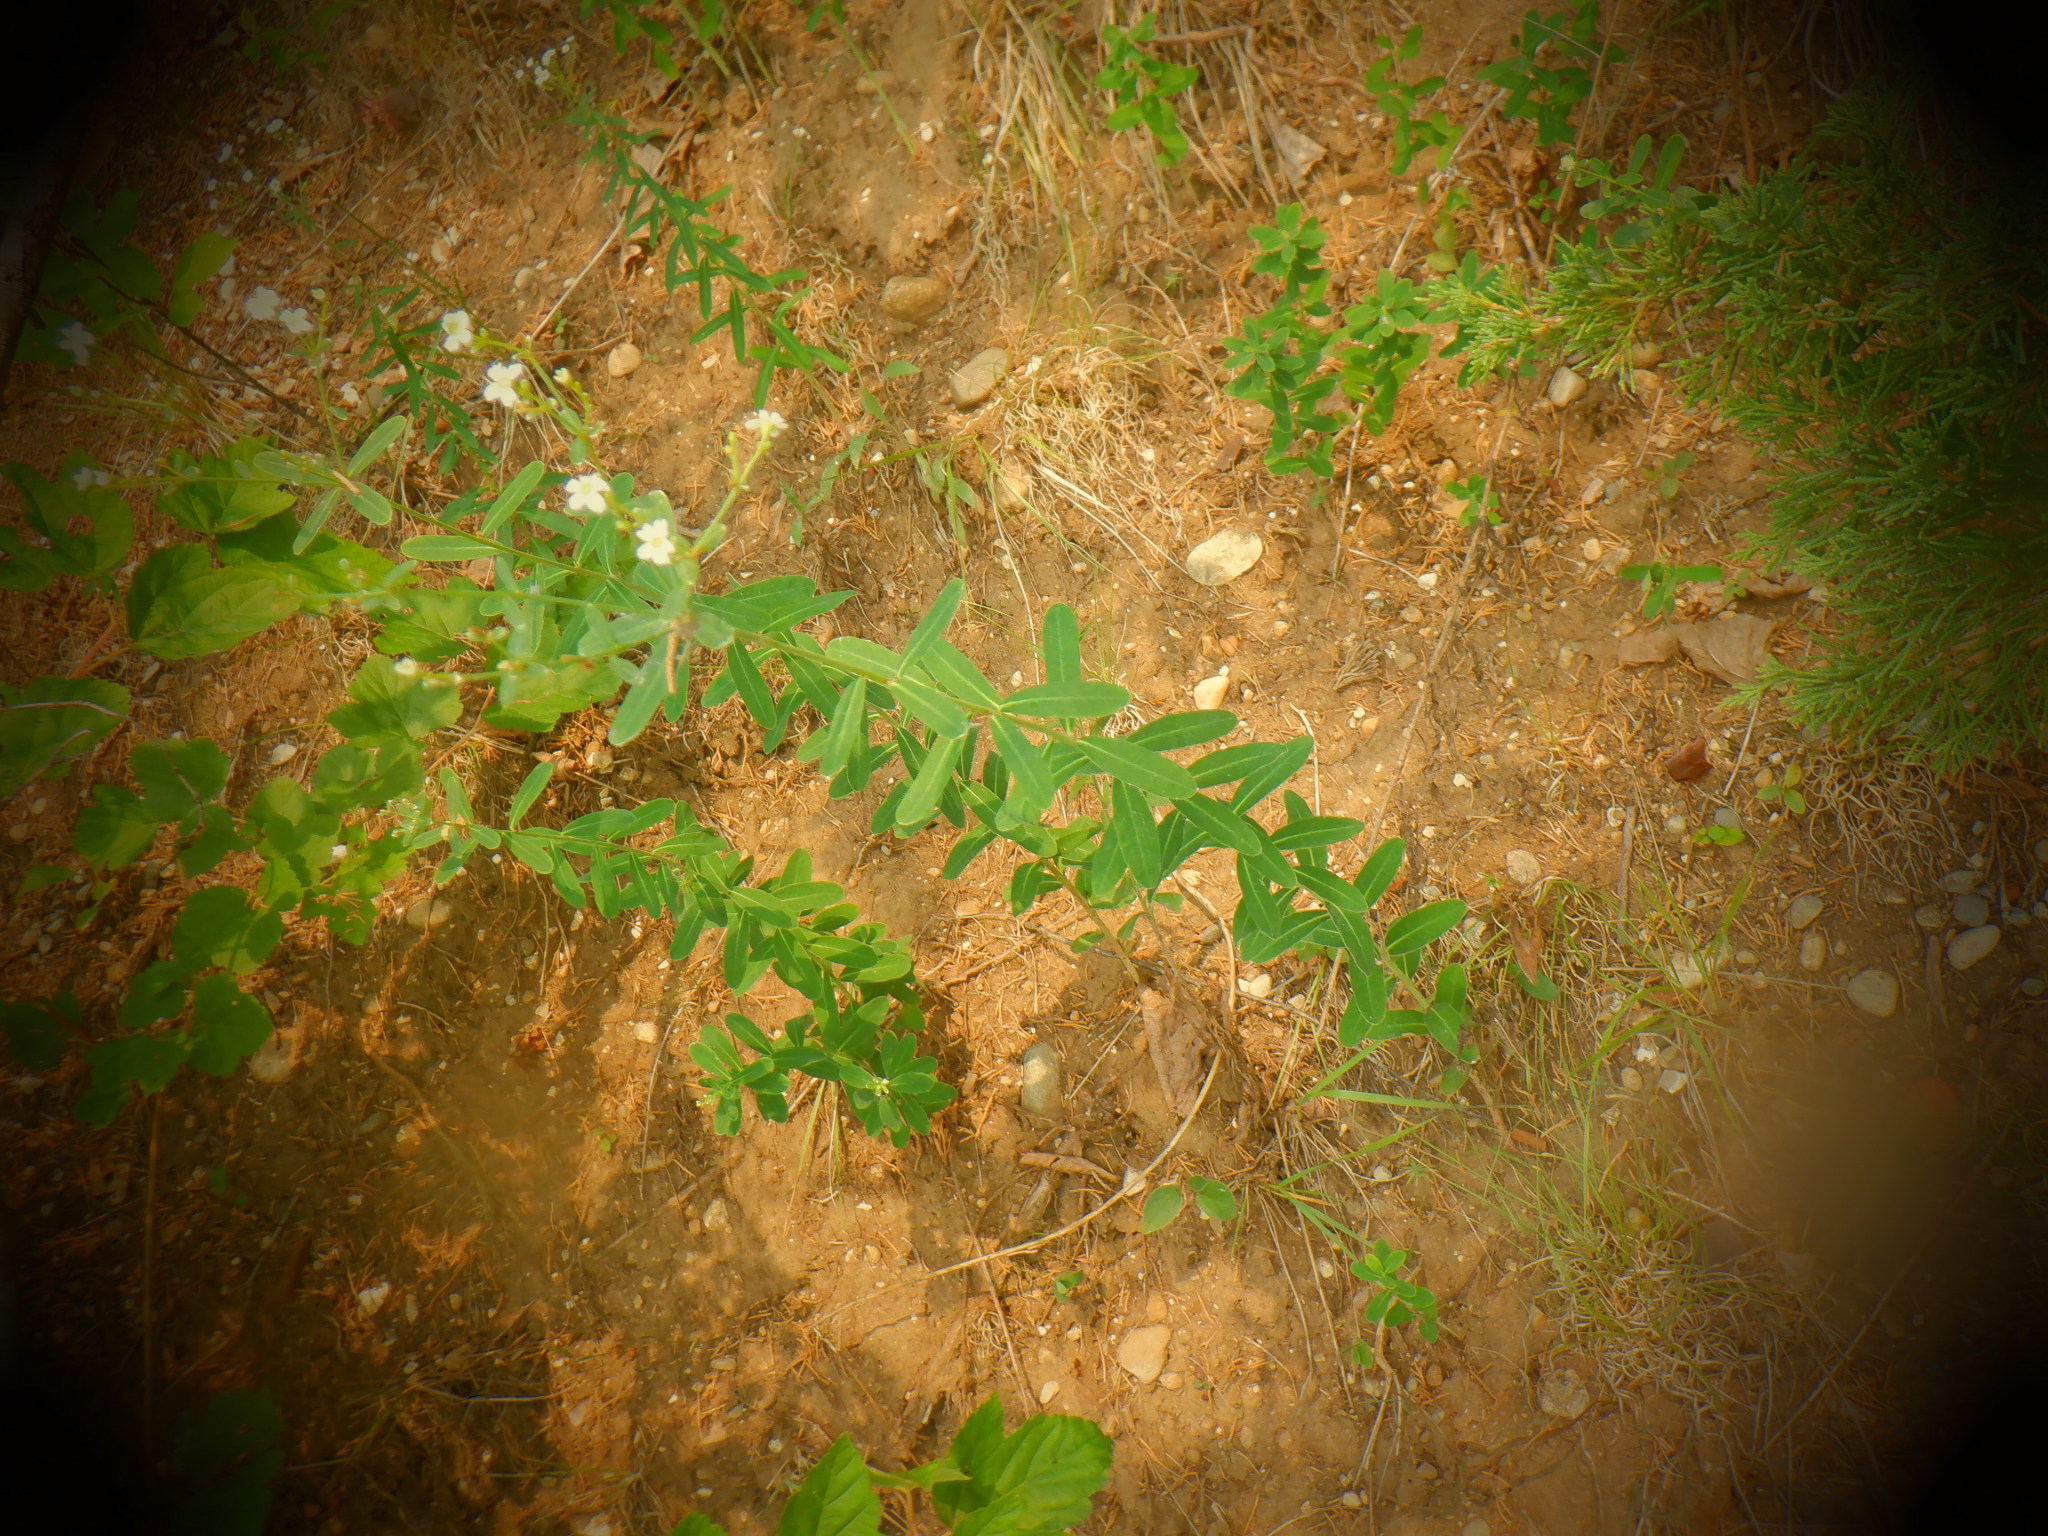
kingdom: Plantae
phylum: Tracheophyta
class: Magnoliopsida
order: Malpighiales
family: Euphorbiaceae
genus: Euphorbia
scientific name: Euphorbia corollata
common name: Flowering spurge
